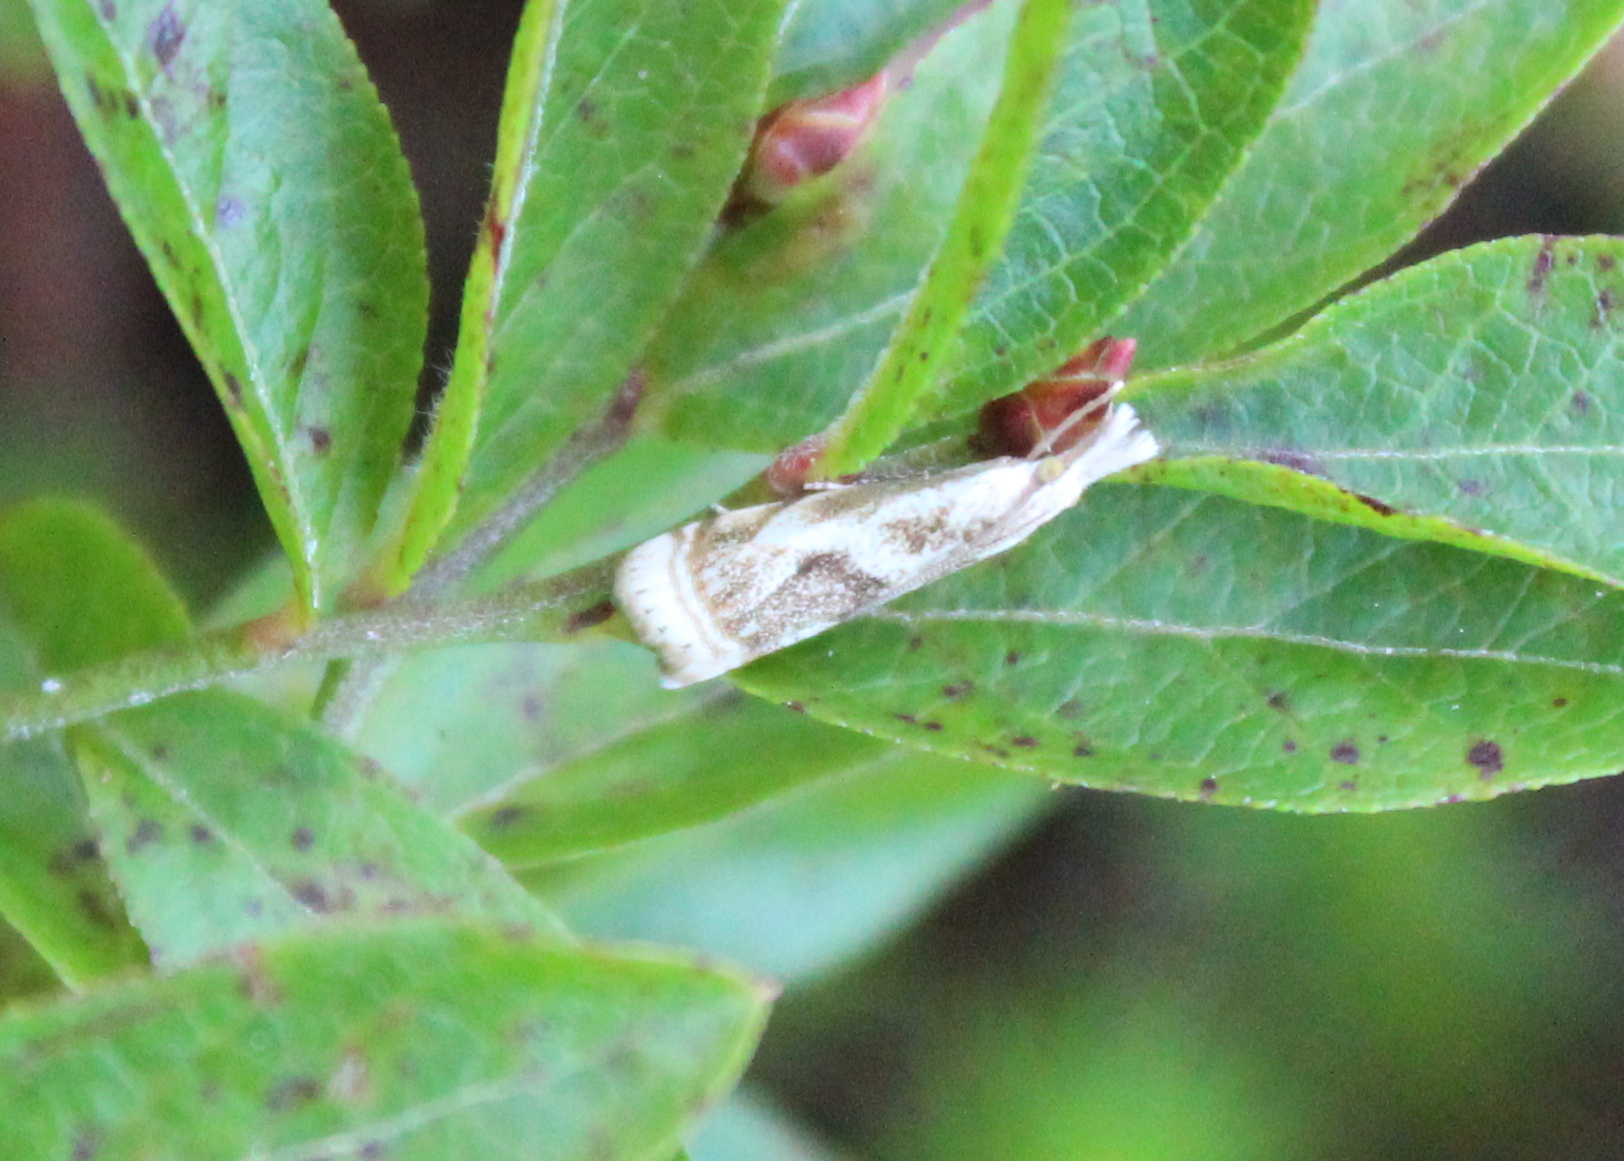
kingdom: Animalia
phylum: Arthropoda
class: Insecta
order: Lepidoptera
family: Crambidae
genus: Microcrambus
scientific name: Microcrambus elegans
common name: Elegant grass-veneer
